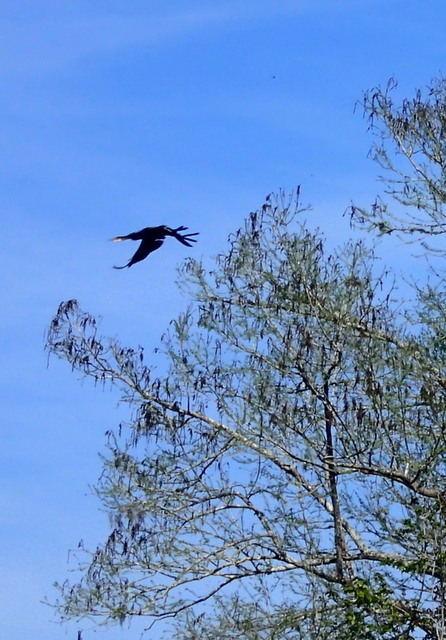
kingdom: Animalia
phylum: Chordata
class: Aves
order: Suliformes
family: Phalacrocoracidae
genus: Phalacrocorax
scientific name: Phalacrocorax auritus
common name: Double-crested cormorant
